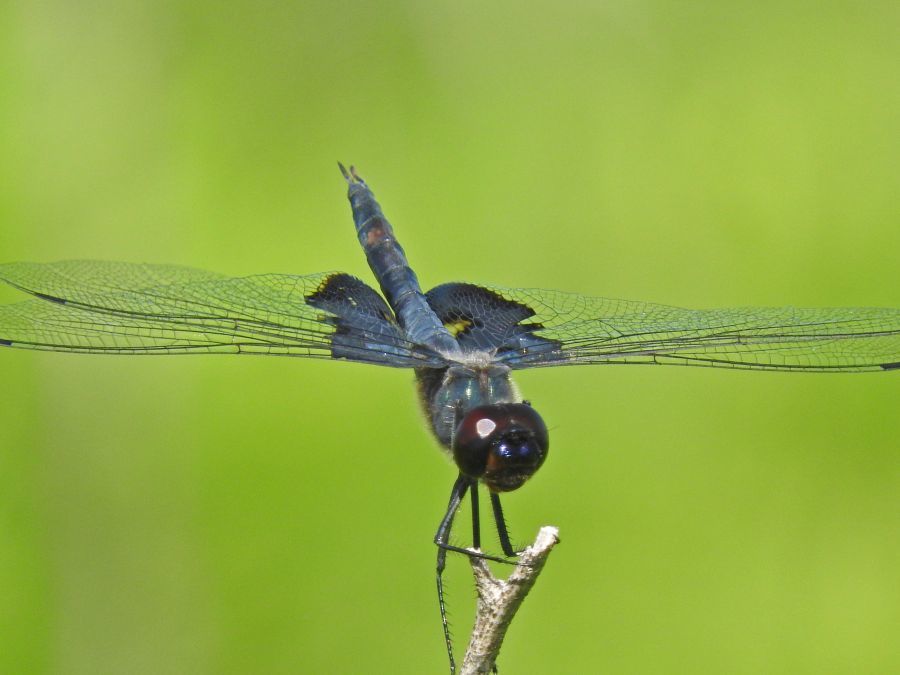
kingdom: Animalia
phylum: Arthropoda
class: Insecta
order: Odonata
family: Libellulidae
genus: Tramea
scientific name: Tramea lacerata
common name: Black saddlebags
